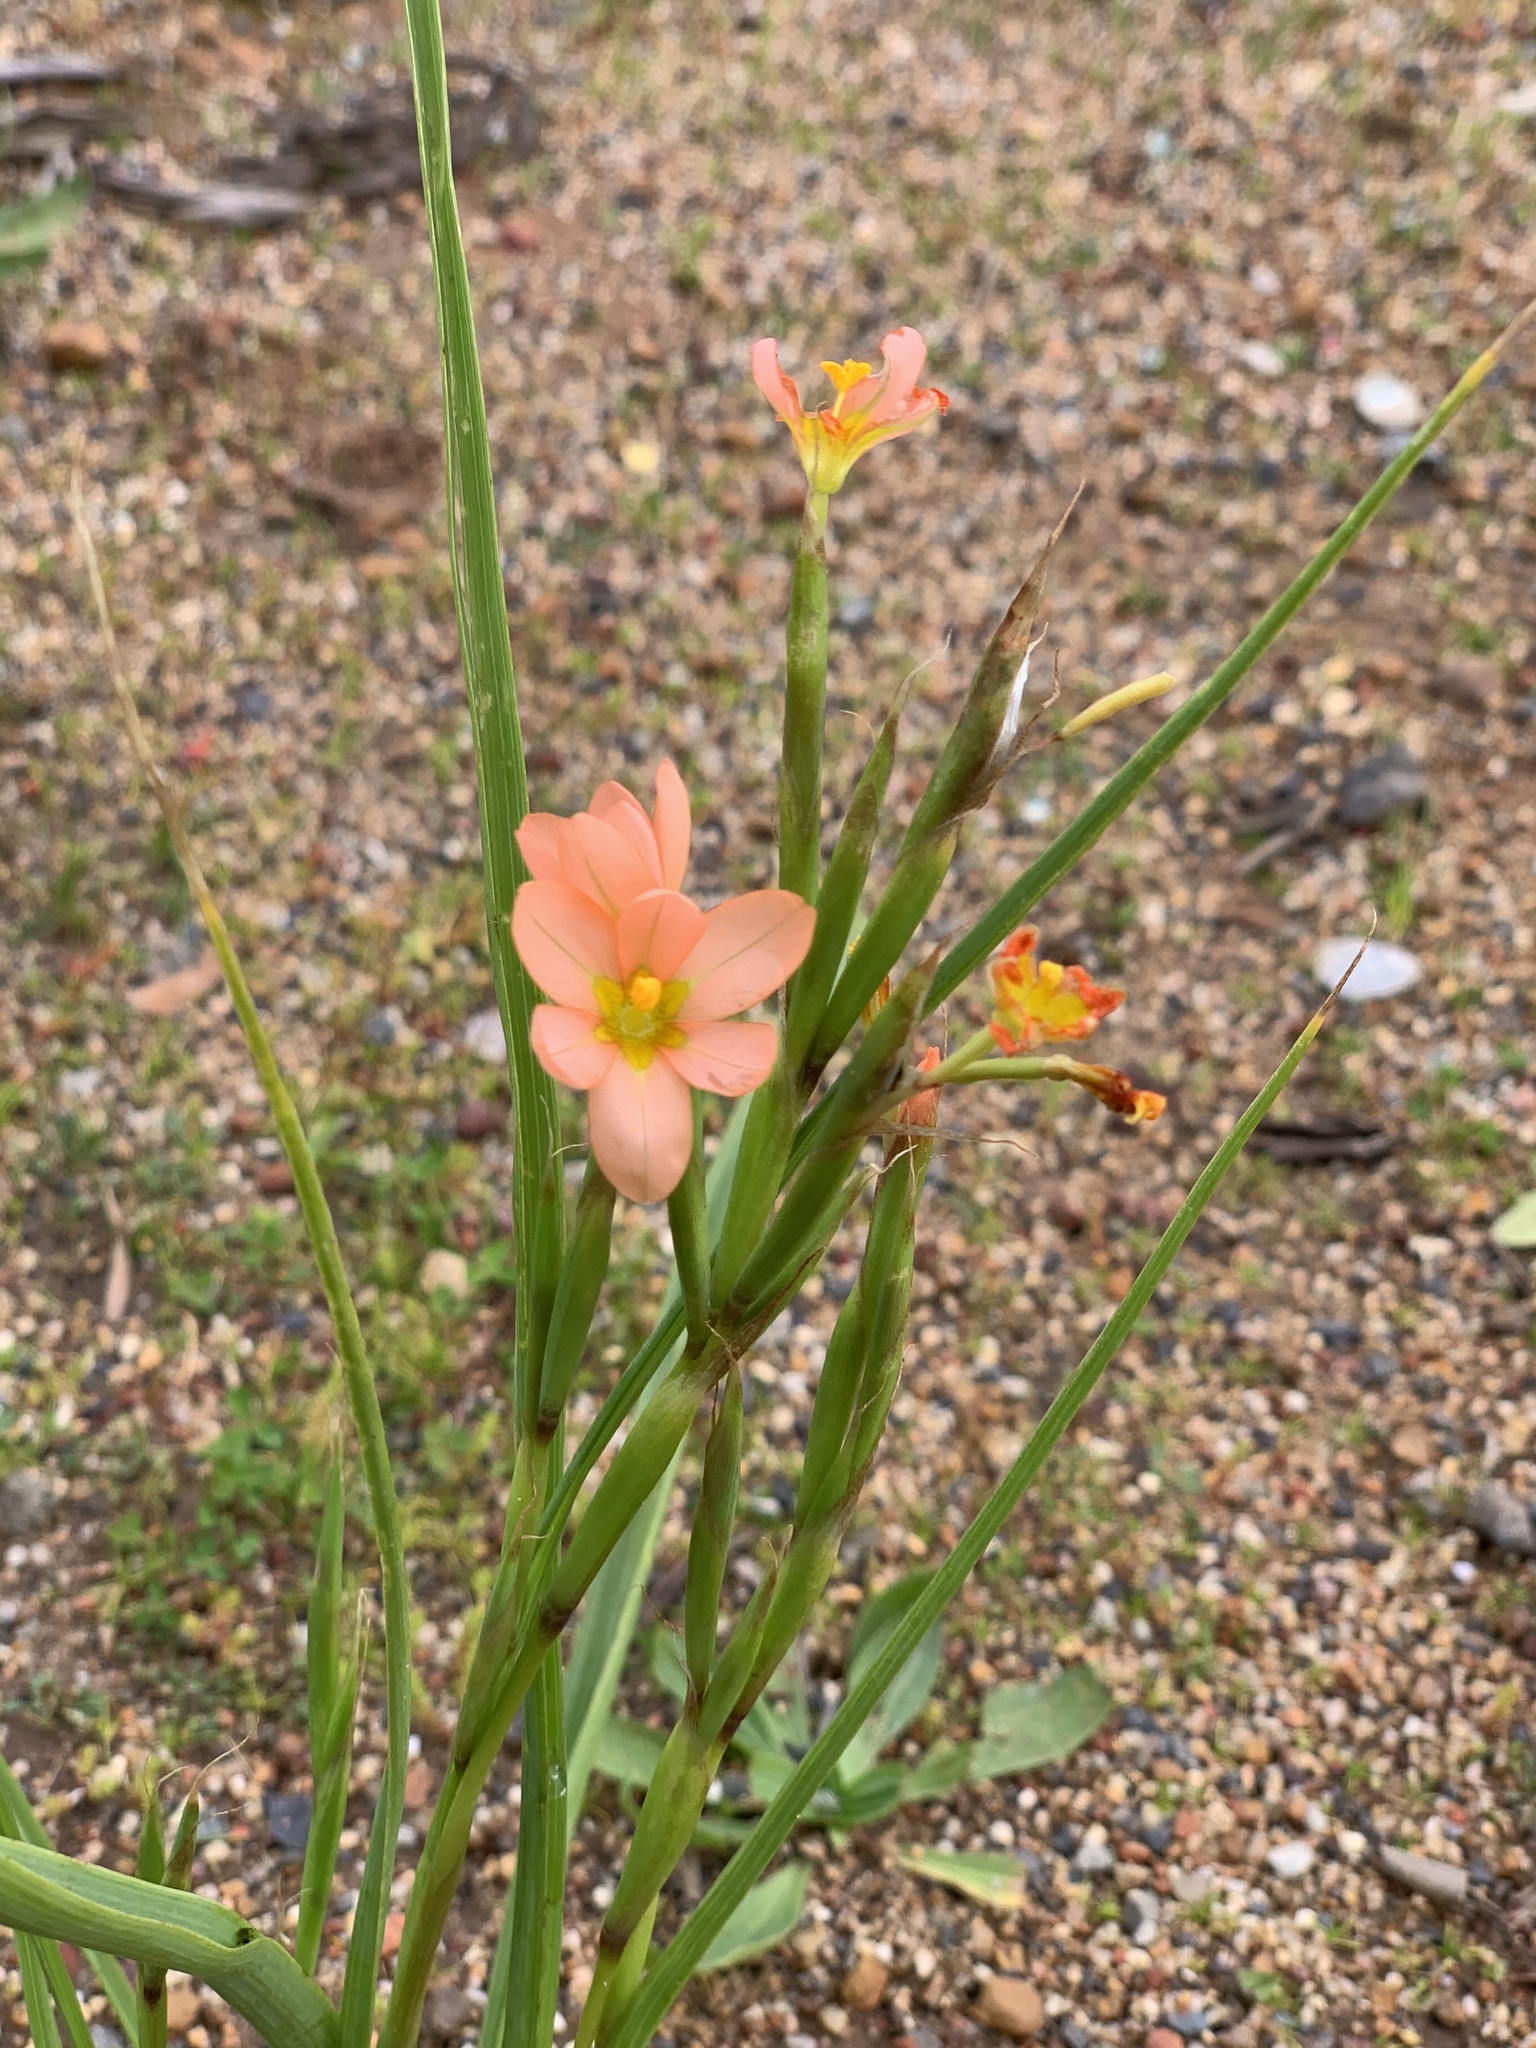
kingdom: Plantae
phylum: Tracheophyta
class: Liliopsida
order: Asparagales
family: Iridaceae
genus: Moraea
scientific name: Moraea miniata
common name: Two-leaf cape-tulip
